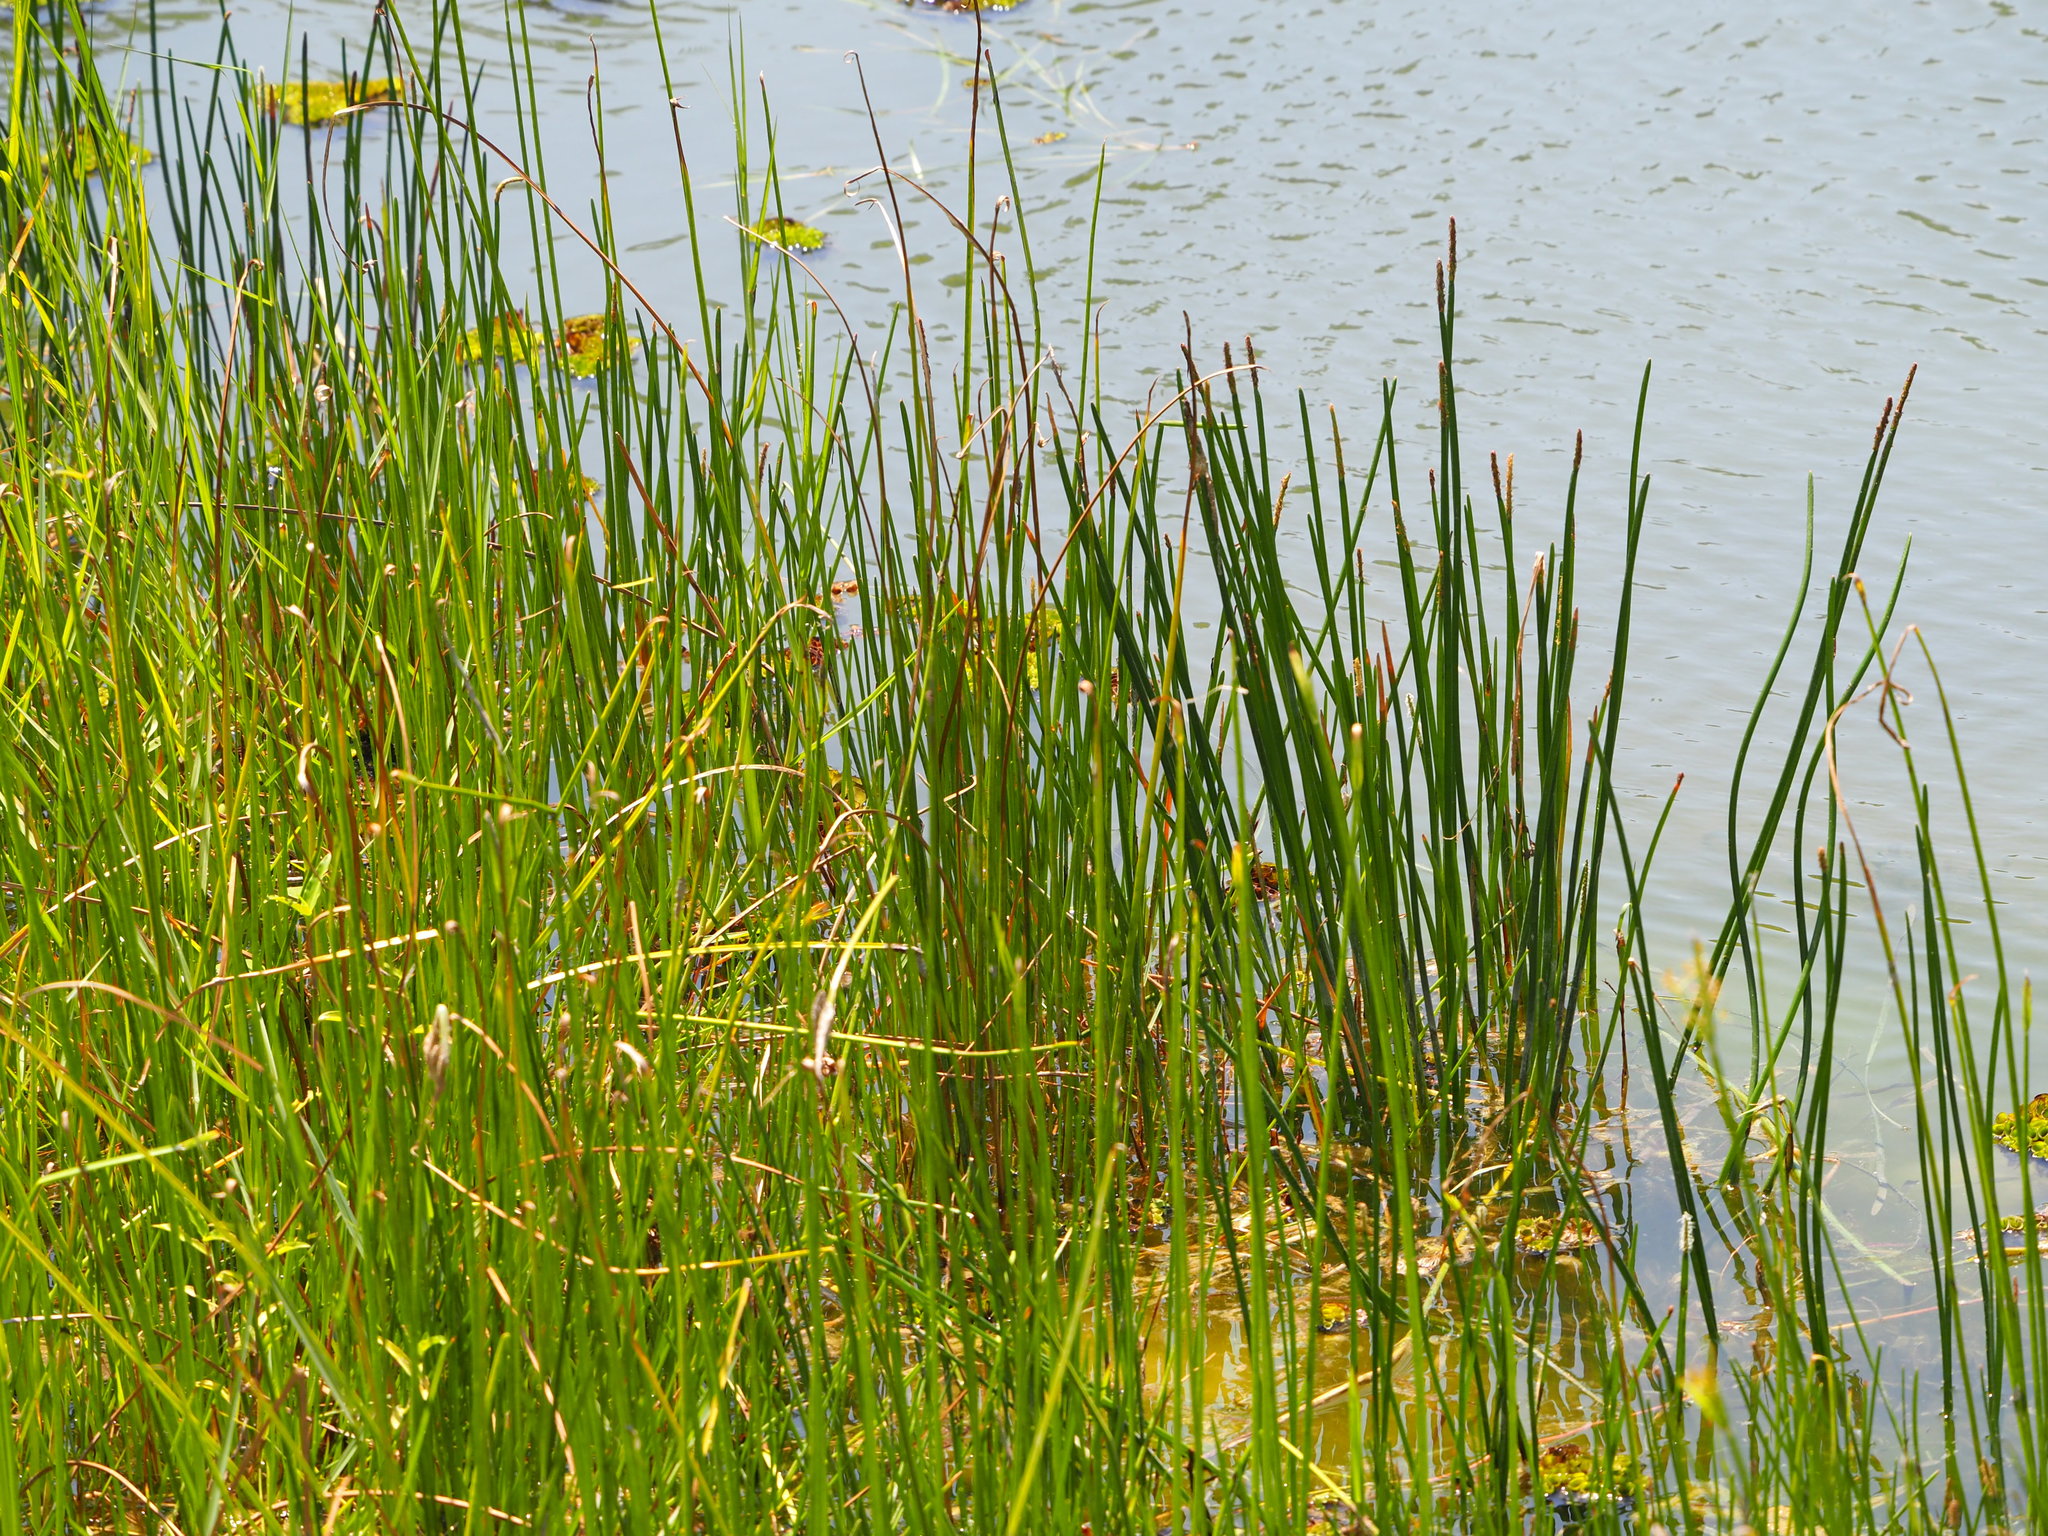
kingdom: Plantae
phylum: Tracheophyta
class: Liliopsida
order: Poales
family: Cyperaceae
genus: Cyperus
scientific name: Cyperus malaccensis
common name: Shichito matgrass
